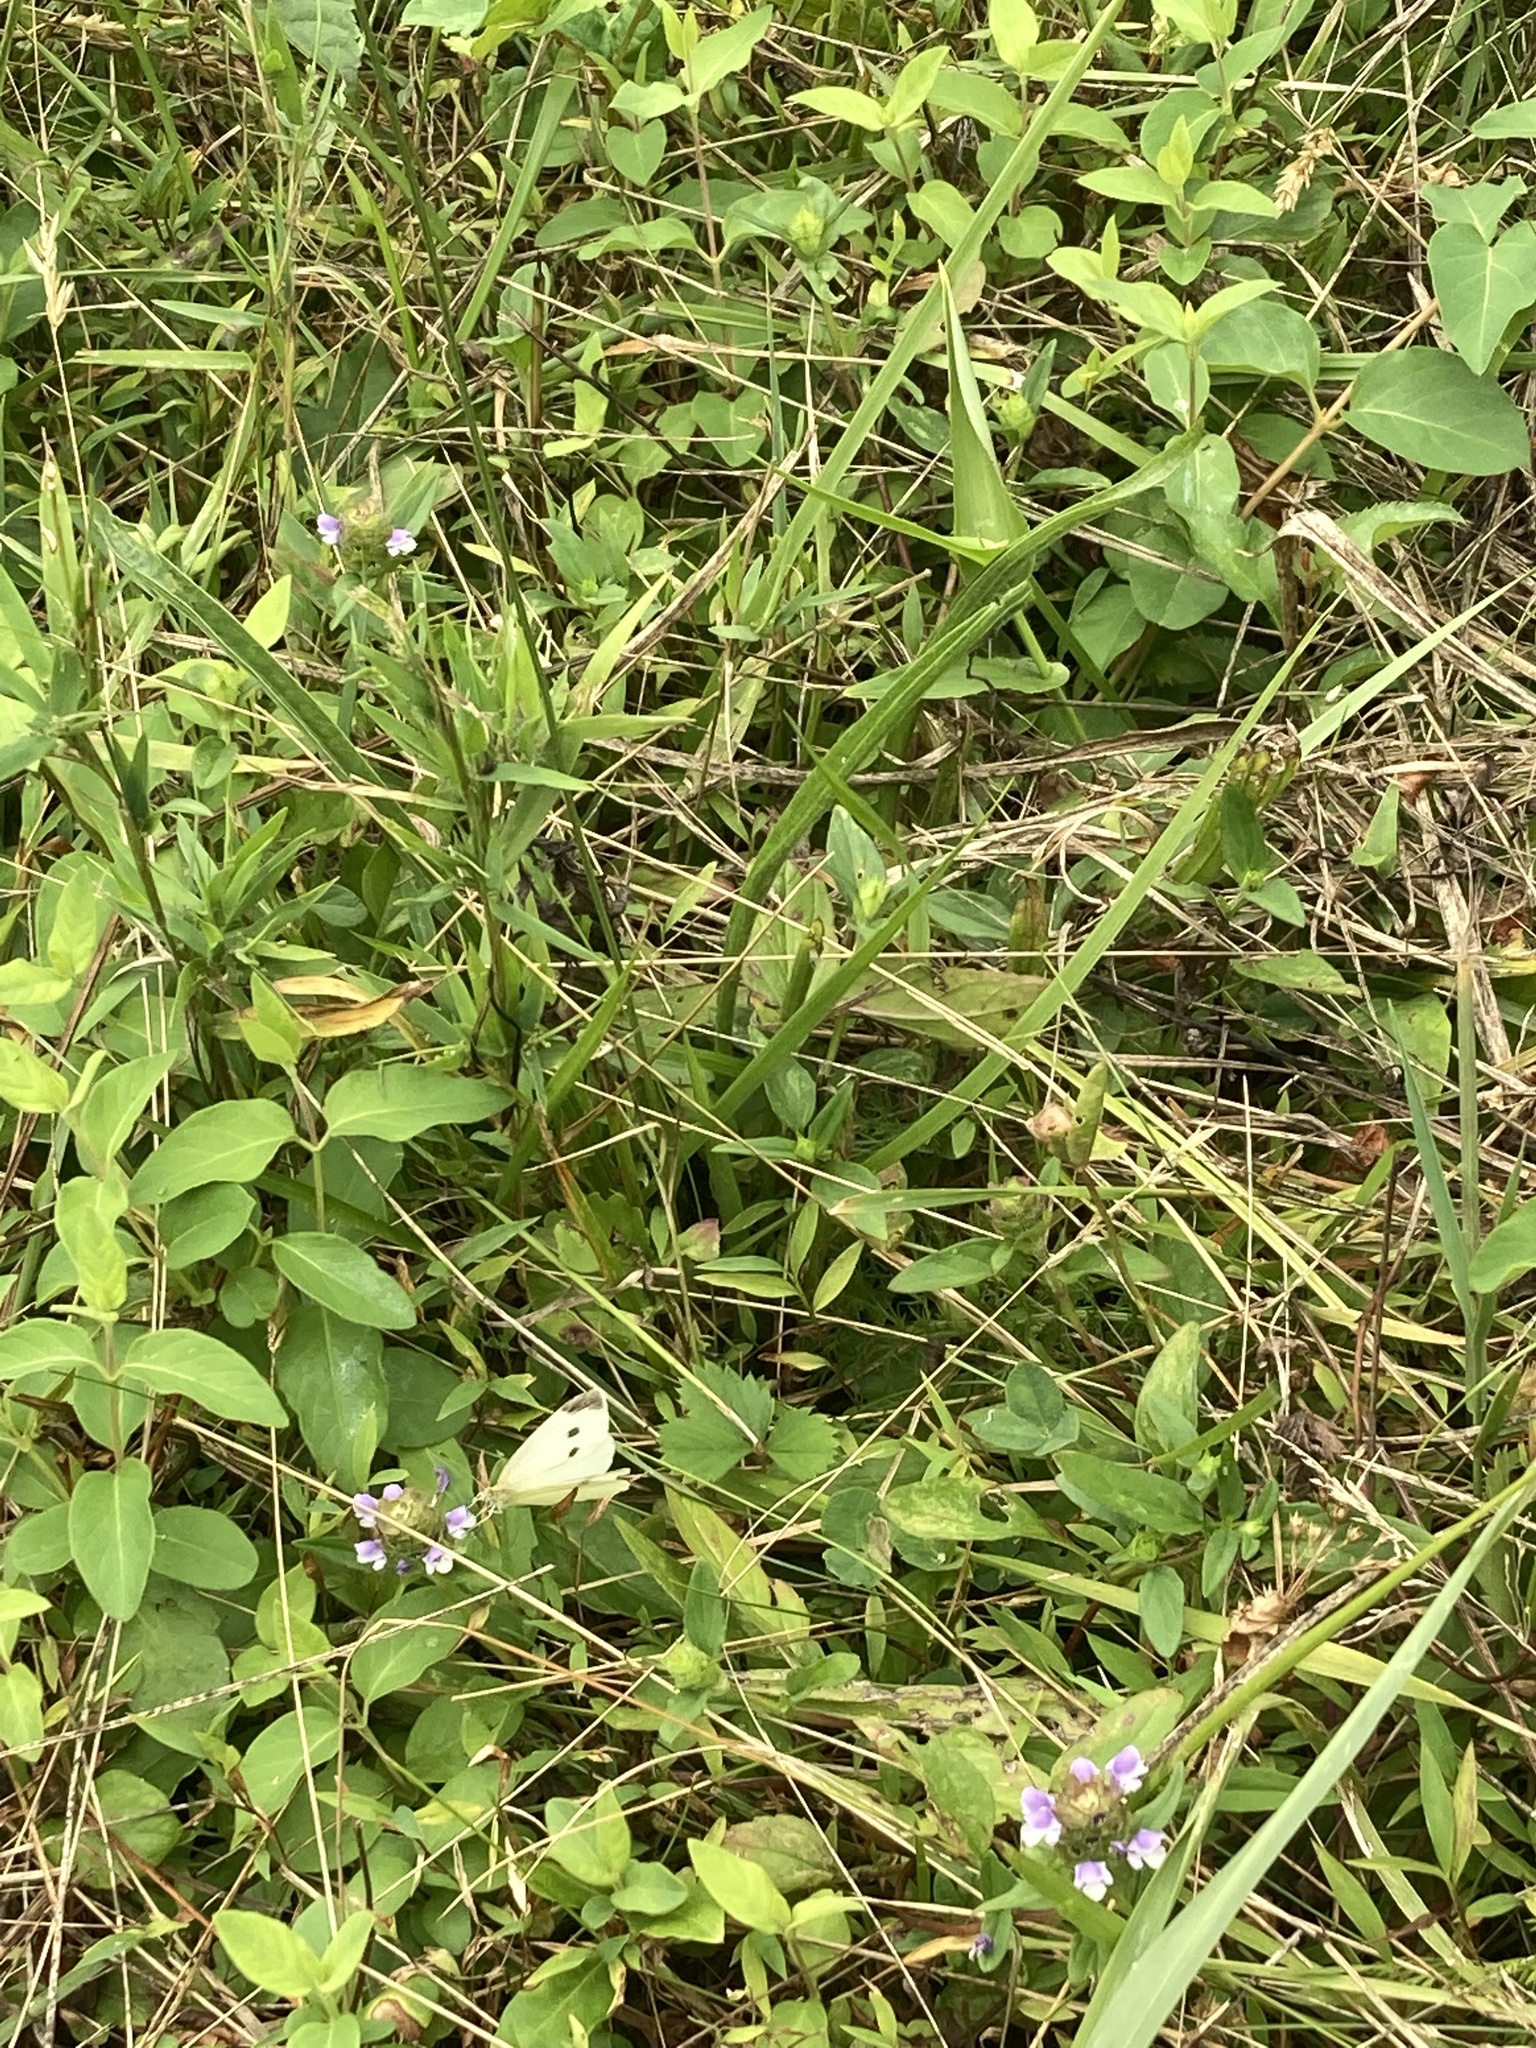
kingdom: Animalia
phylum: Arthropoda
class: Insecta
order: Lepidoptera
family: Pieridae
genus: Pieris
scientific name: Pieris rapae
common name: Small white
